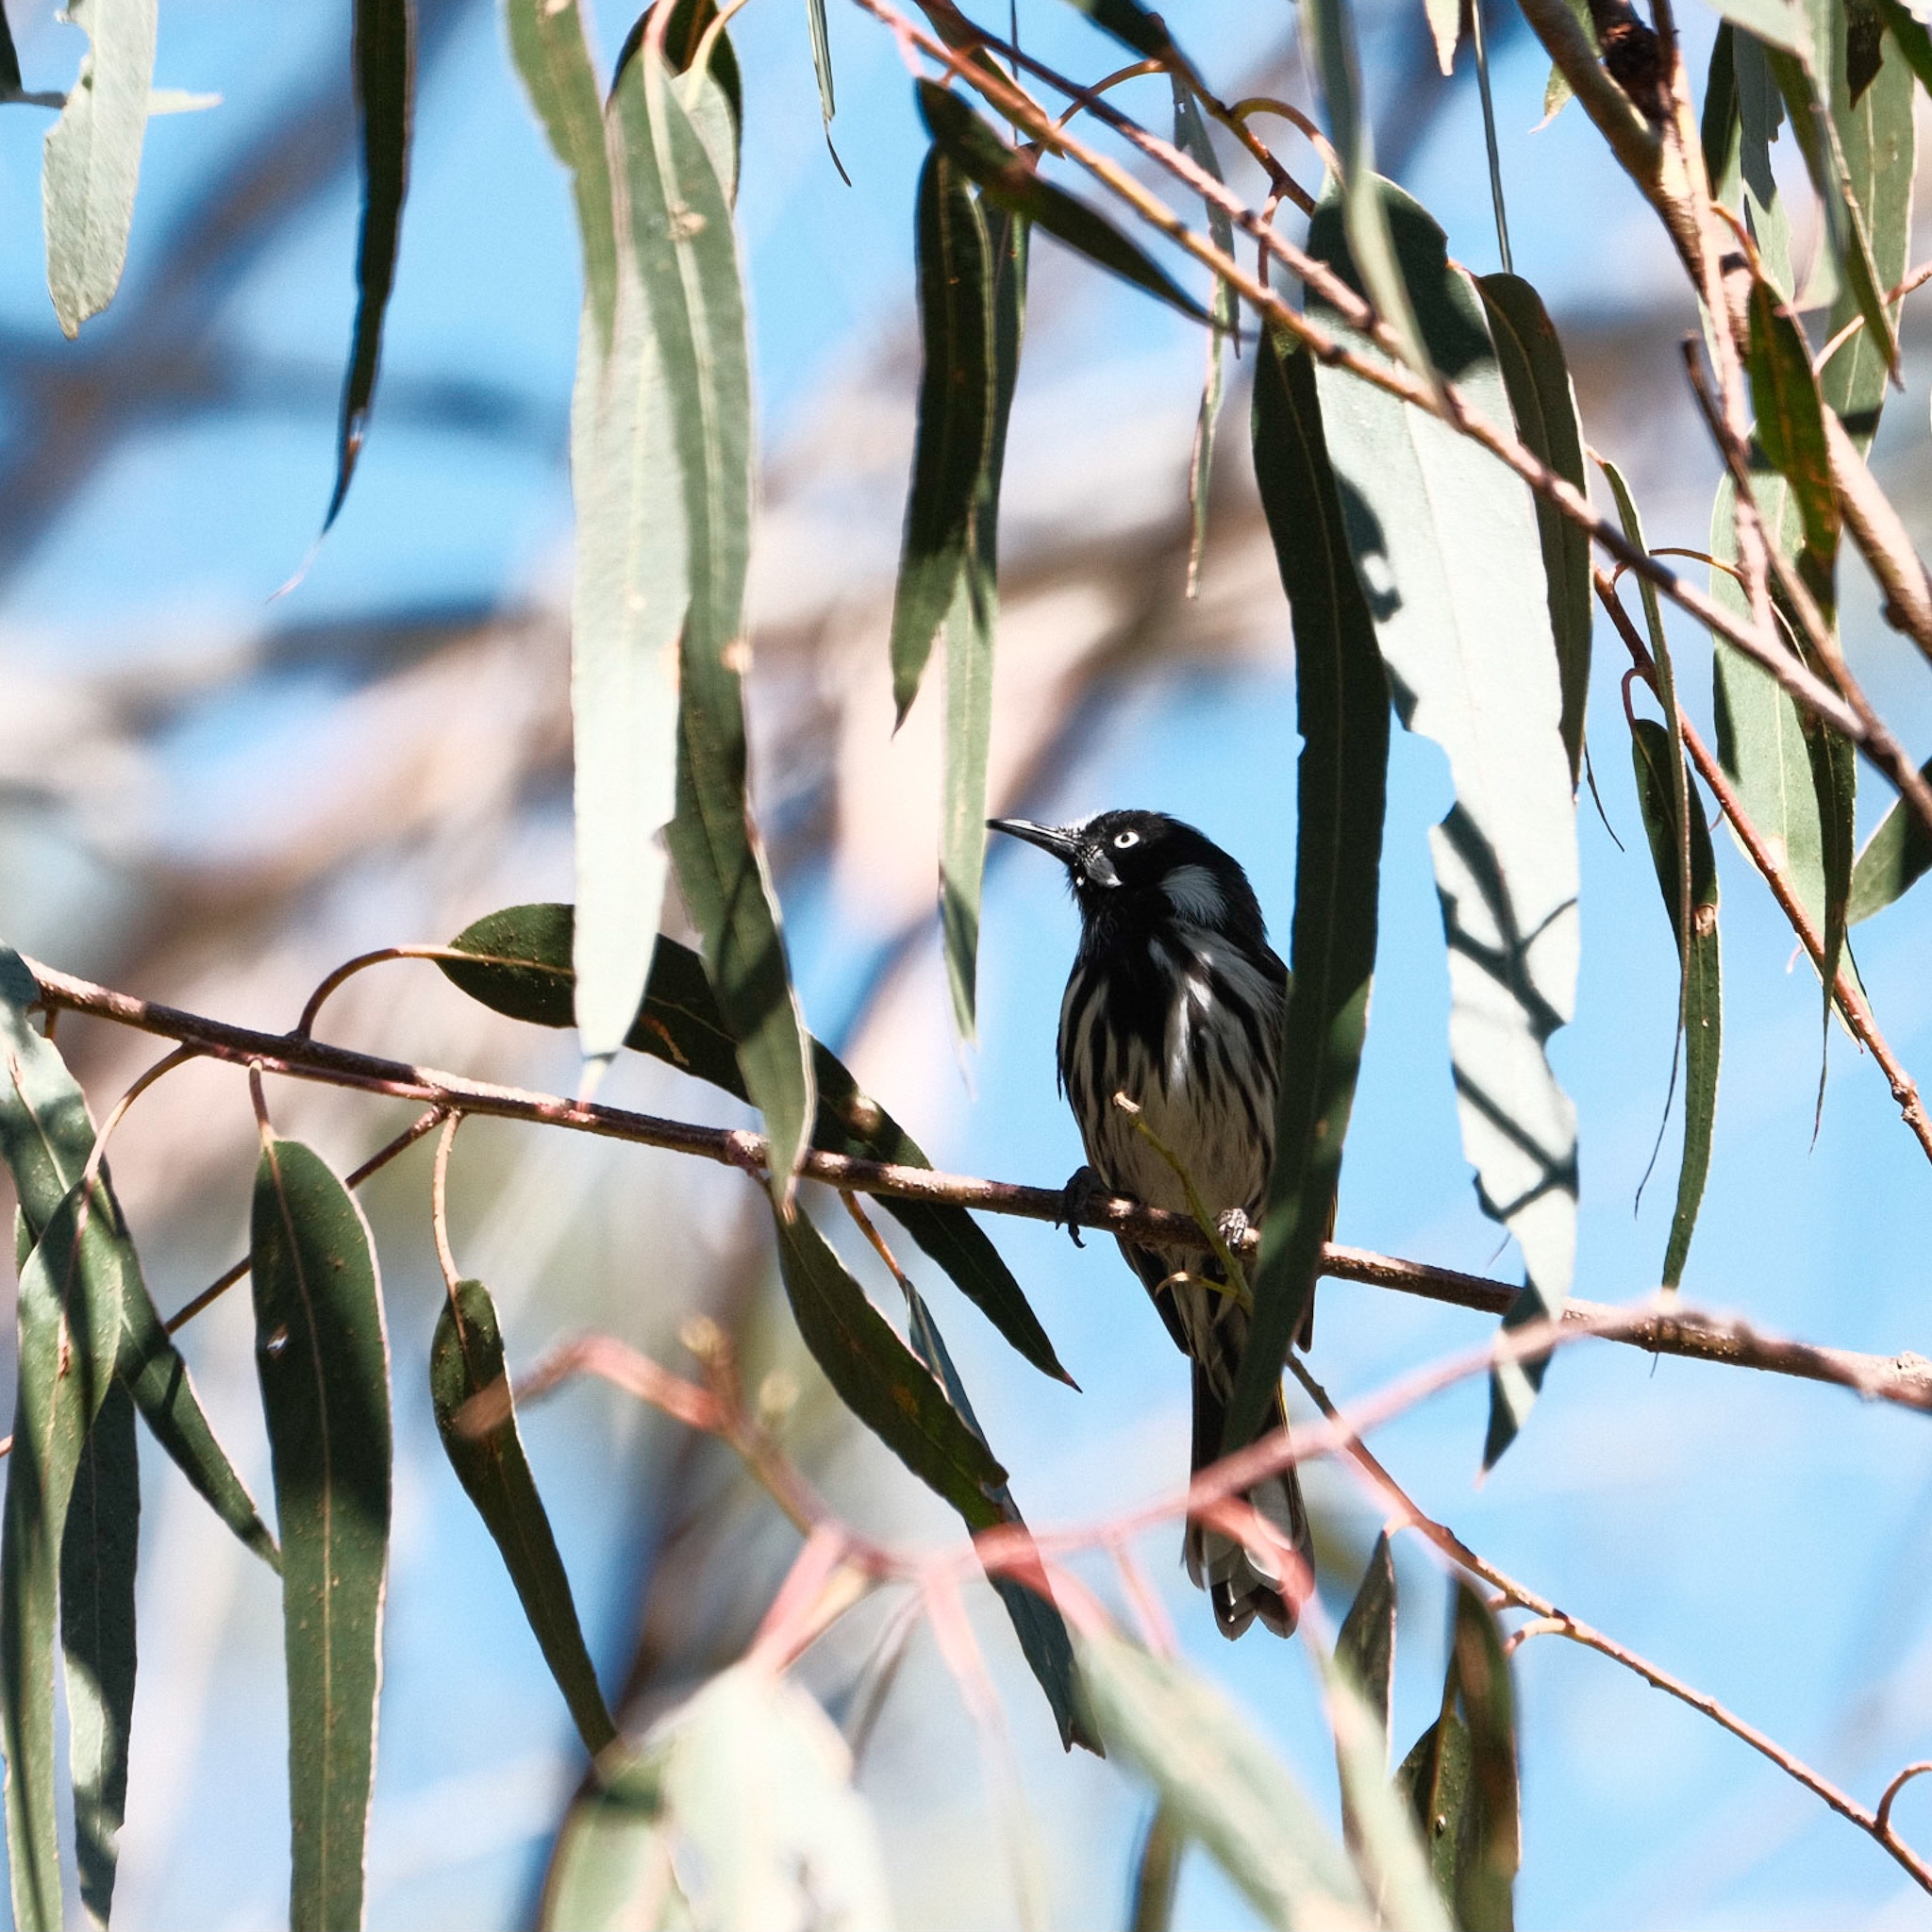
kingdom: Animalia
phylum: Chordata
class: Aves
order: Passeriformes
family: Meliphagidae
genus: Phylidonyris
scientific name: Phylidonyris novaehollandiae
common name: New holland honeyeater
